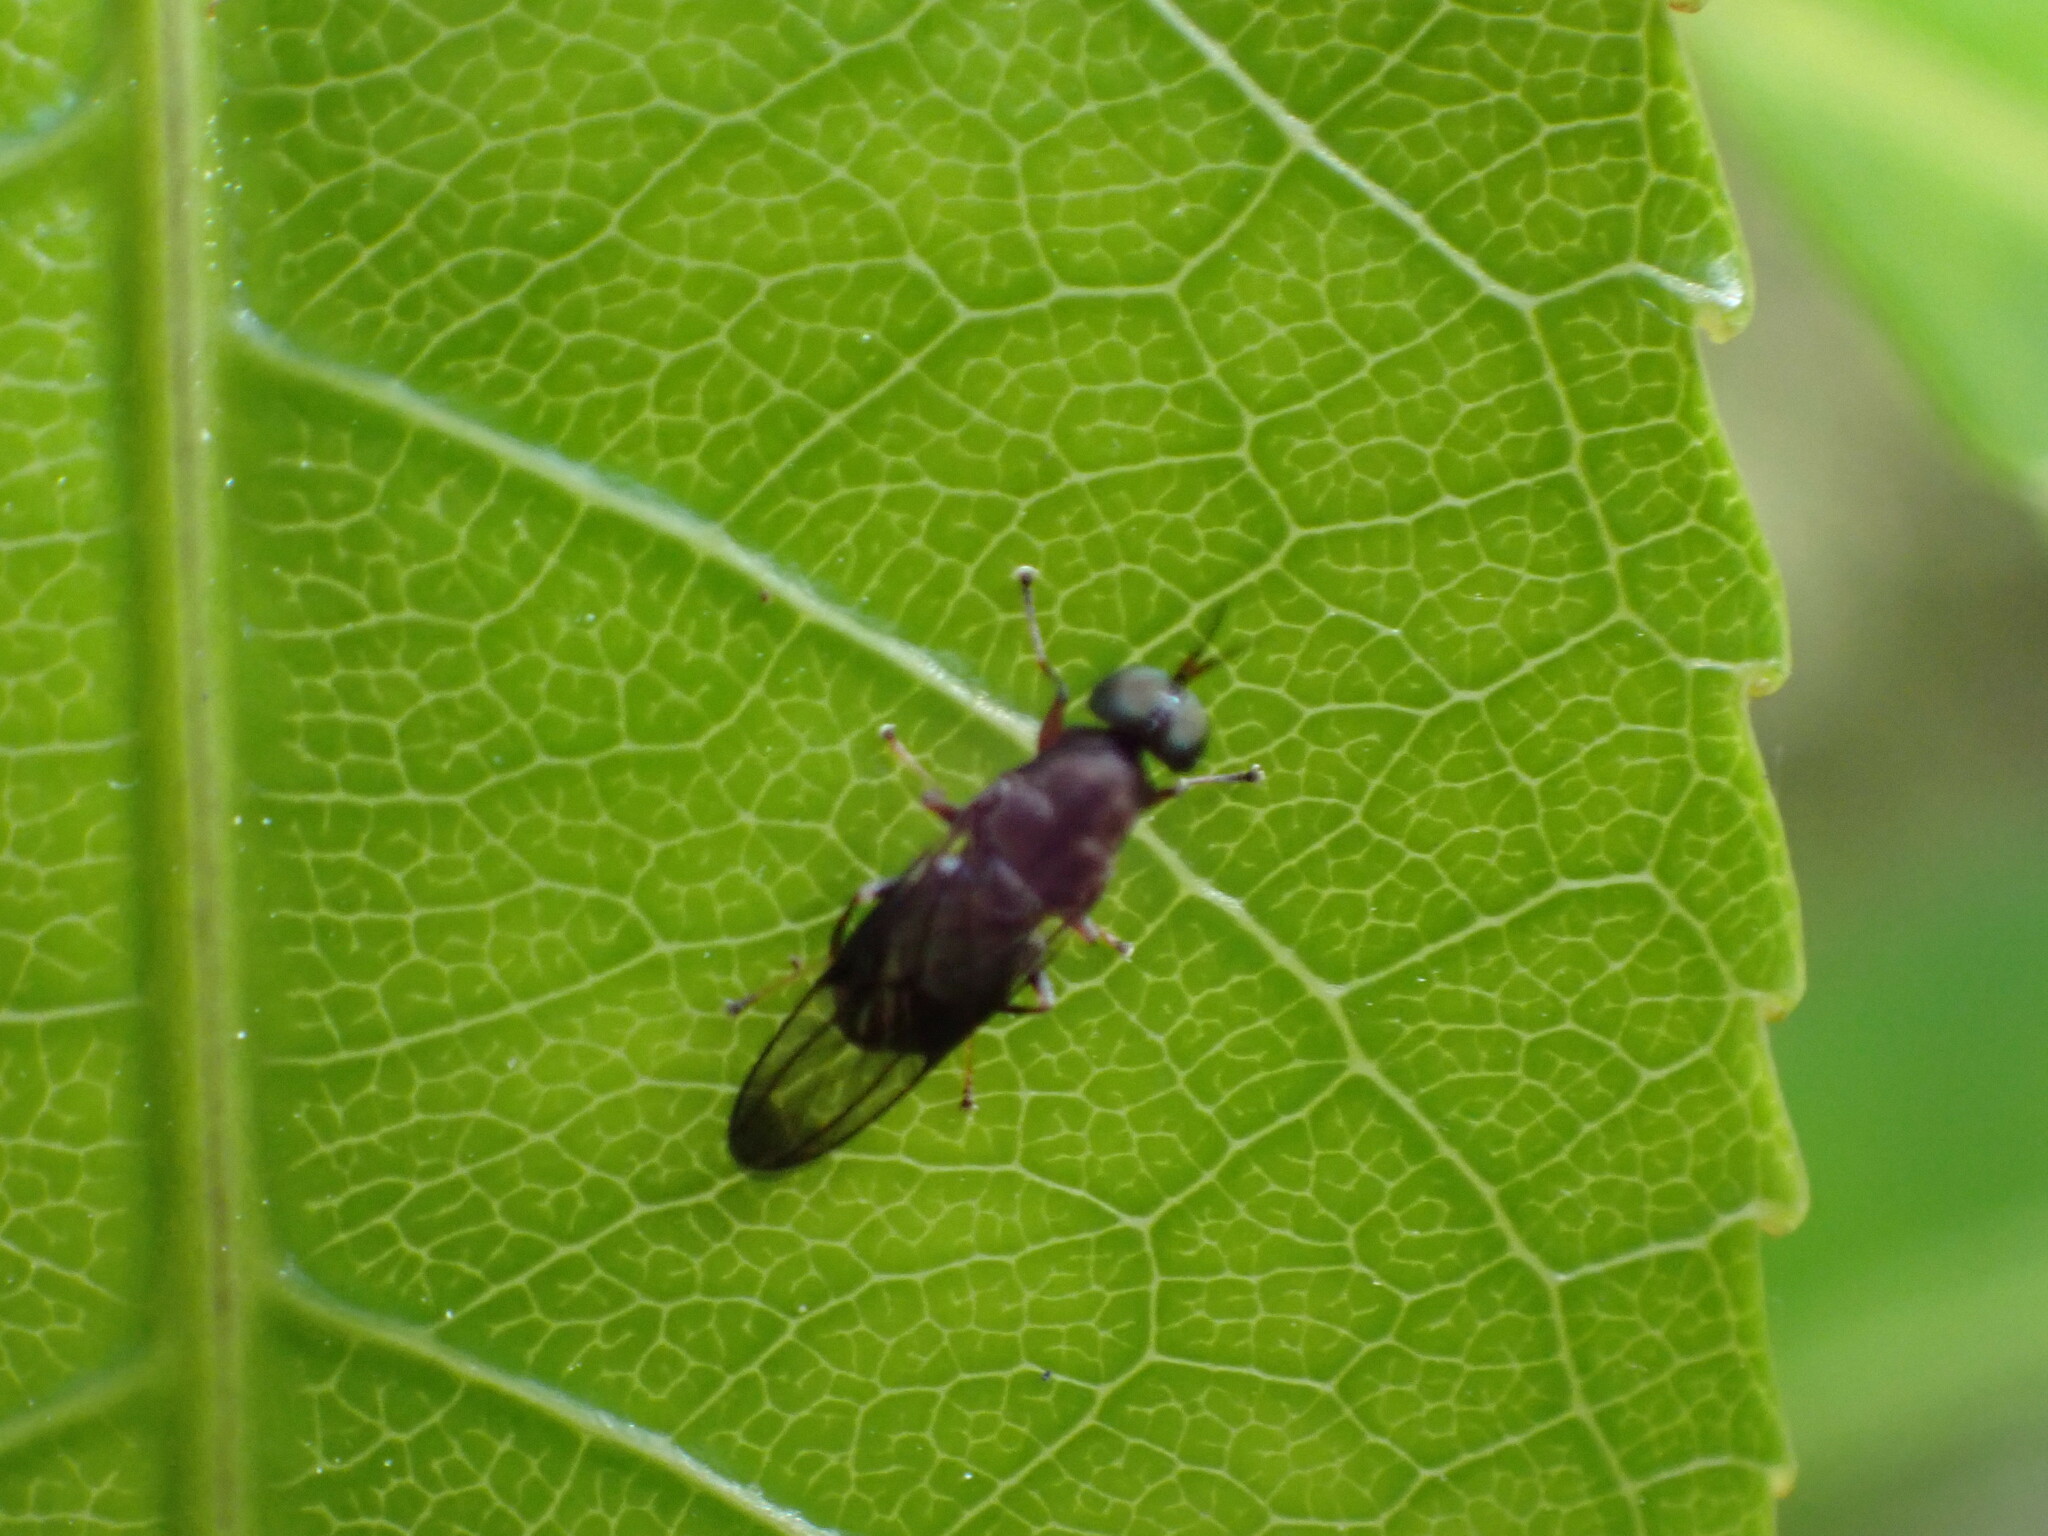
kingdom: Animalia
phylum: Arthropoda
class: Insecta
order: Diptera
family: Stratiomyidae
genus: Dysbiota
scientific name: Dysbiota peregrina
